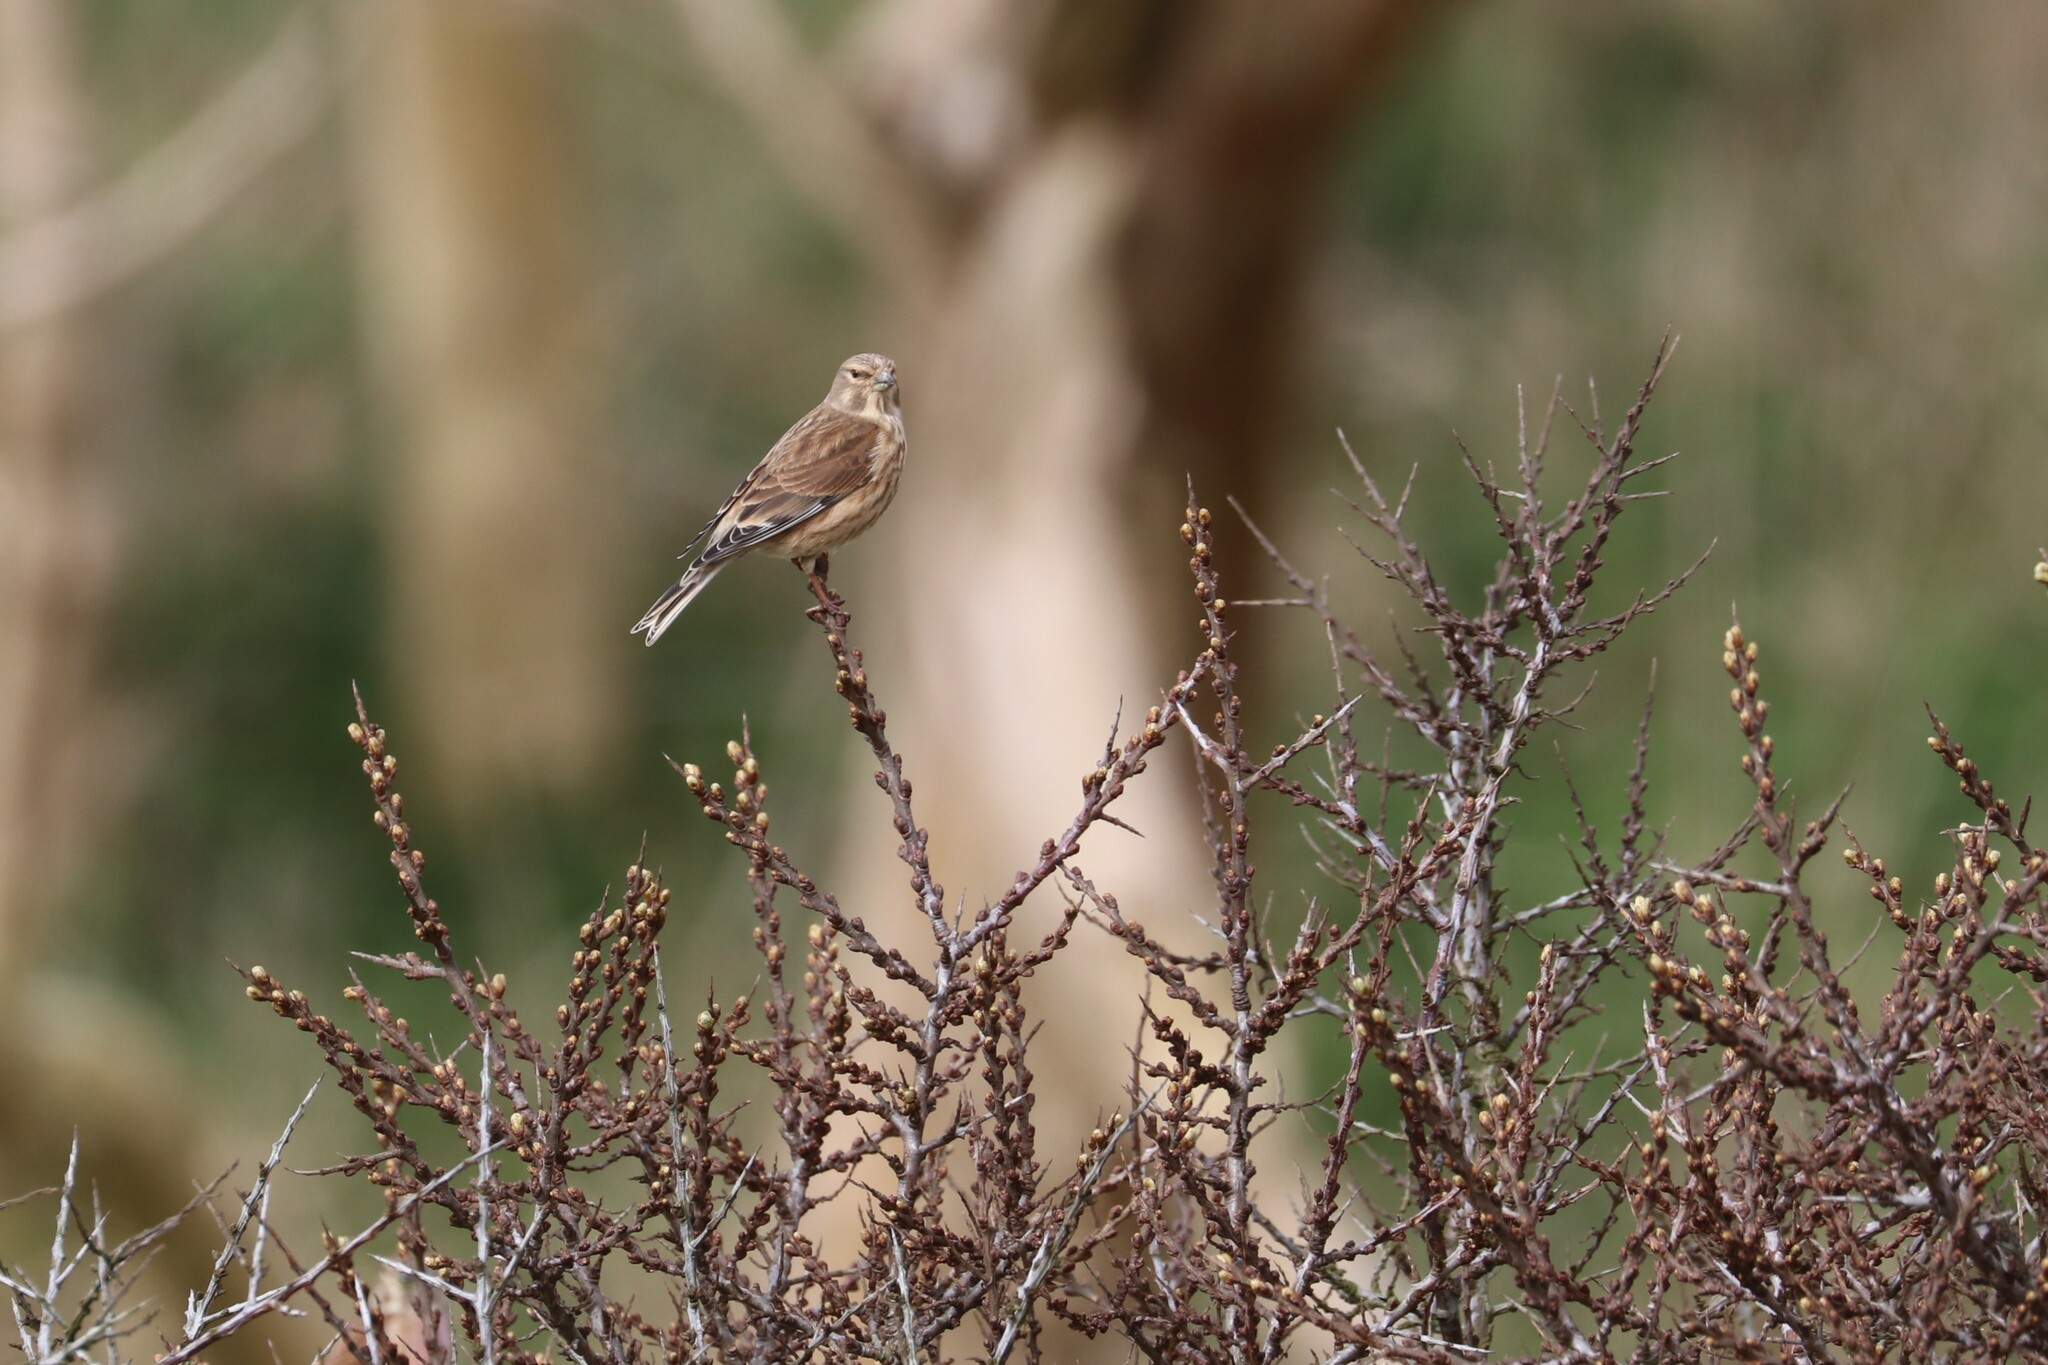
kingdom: Animalia
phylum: Chordata
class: Aves
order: Passeriformes
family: Fringillidae
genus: Linaria
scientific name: Linaria cannabina
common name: Common linnet
